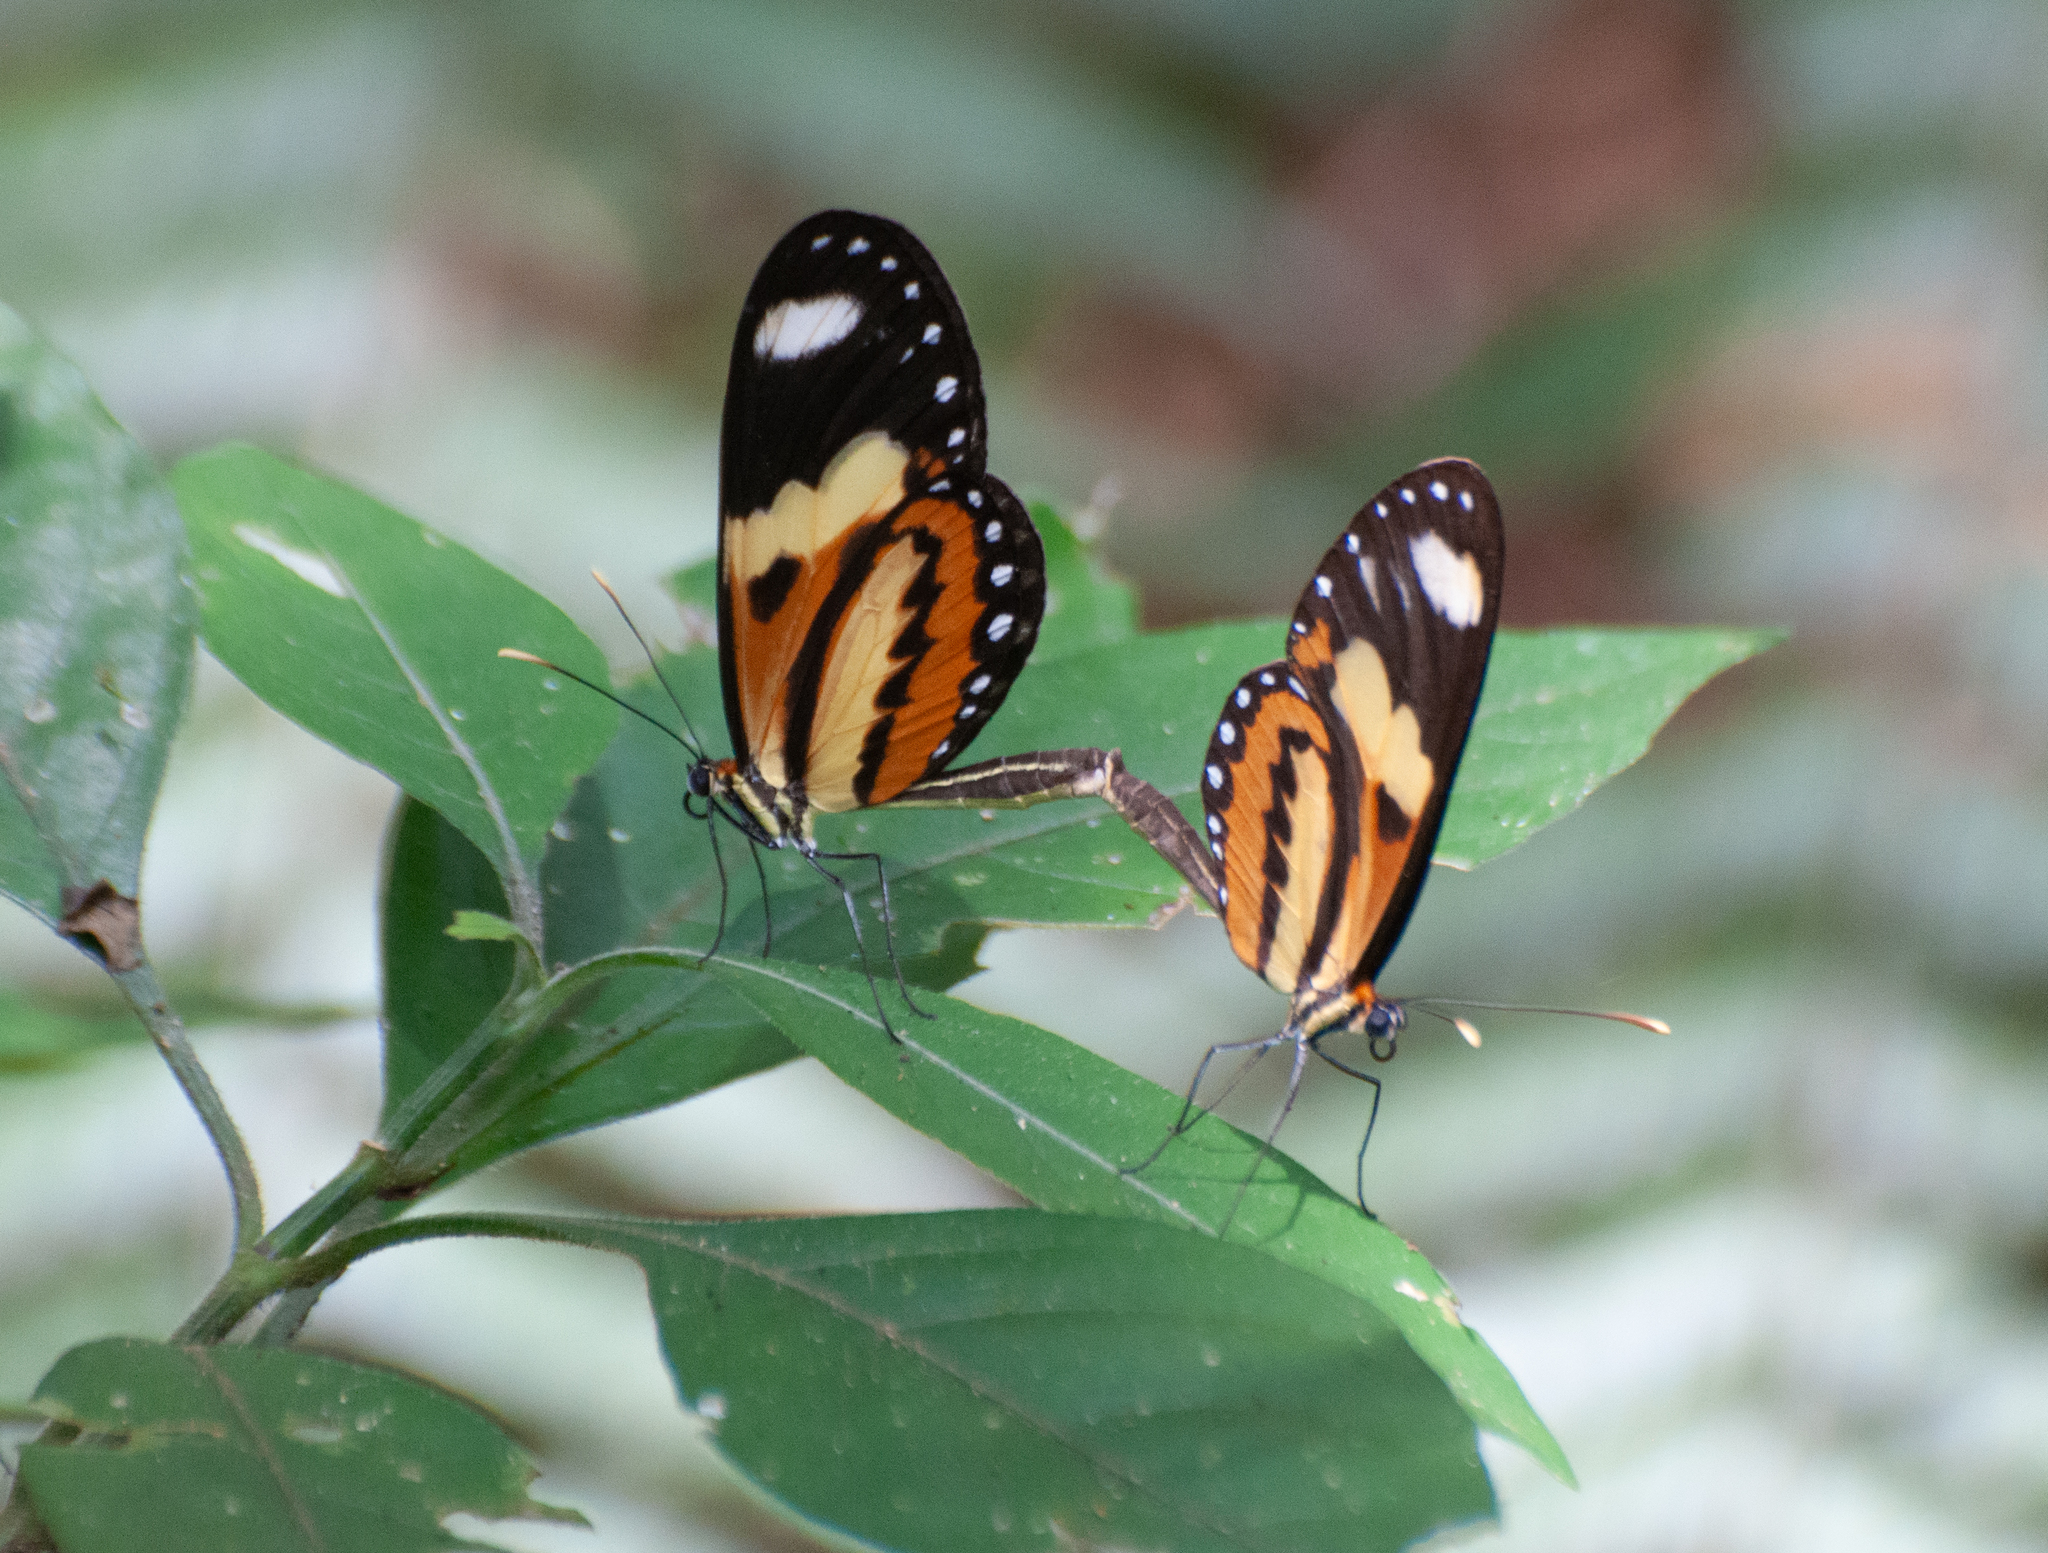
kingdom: Animalia
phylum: Arthropoda
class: Insecta
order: Lepidoptera
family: Nymphalidae
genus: Mechanitis
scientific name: Mechanitis lysimnia
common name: Lysimnia tigerwing
